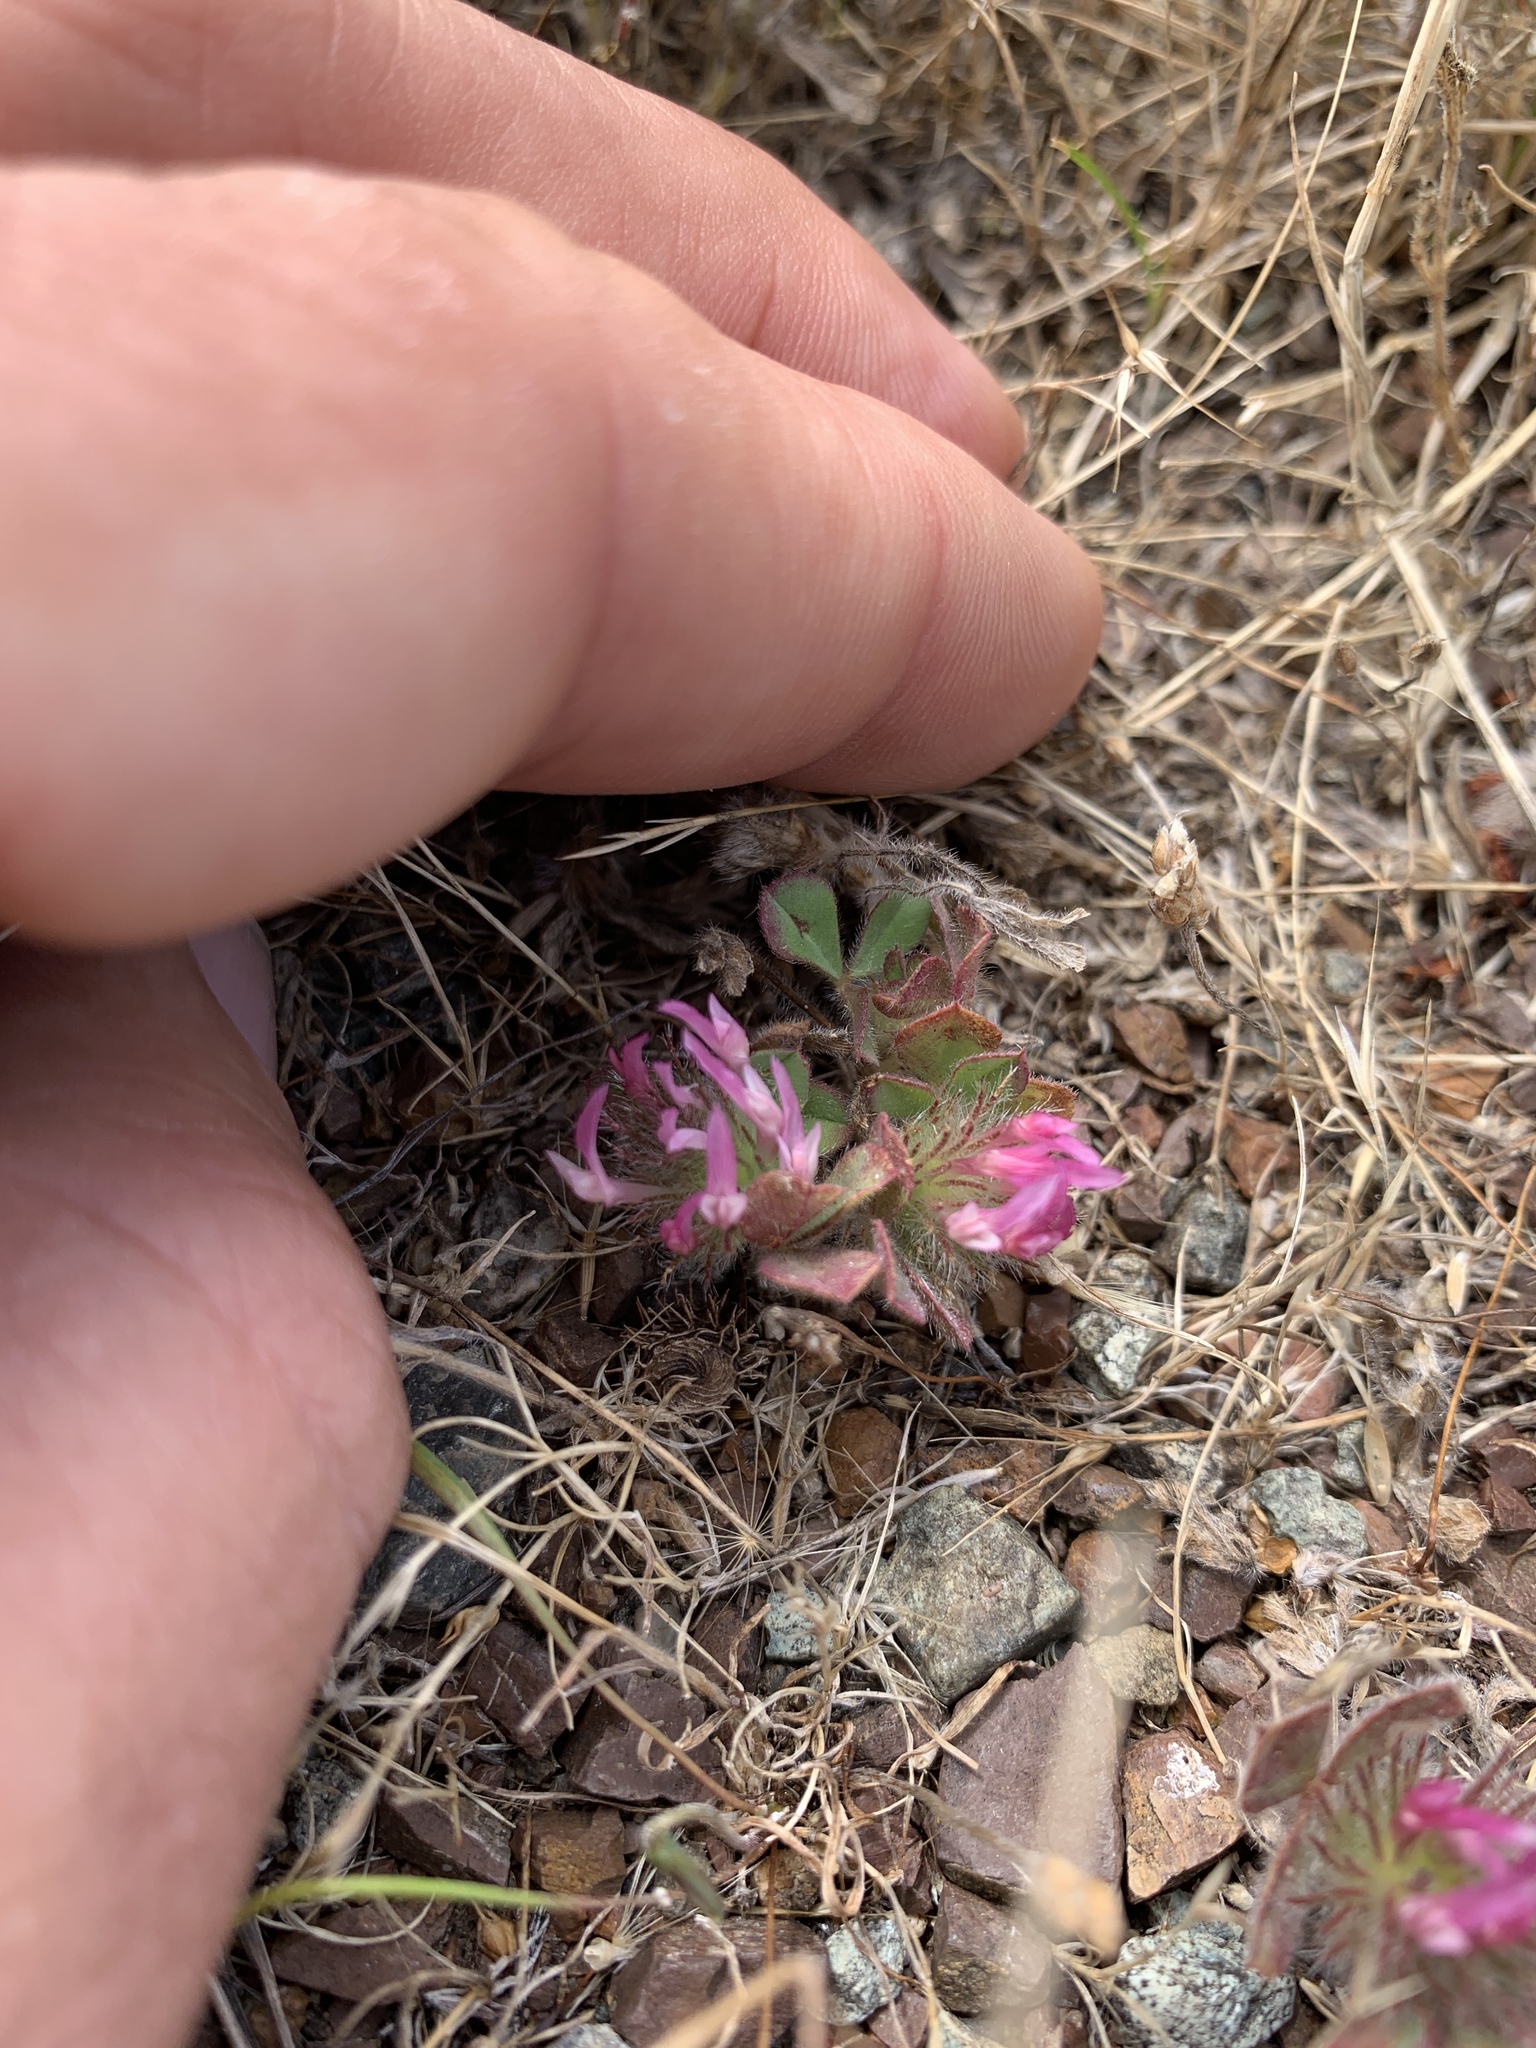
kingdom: Plantae
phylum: Tracheophyta
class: Magnoliopsida
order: Fabales
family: Fabaceae
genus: Trifolium
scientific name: Trifolium hirtum
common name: Rose clover
